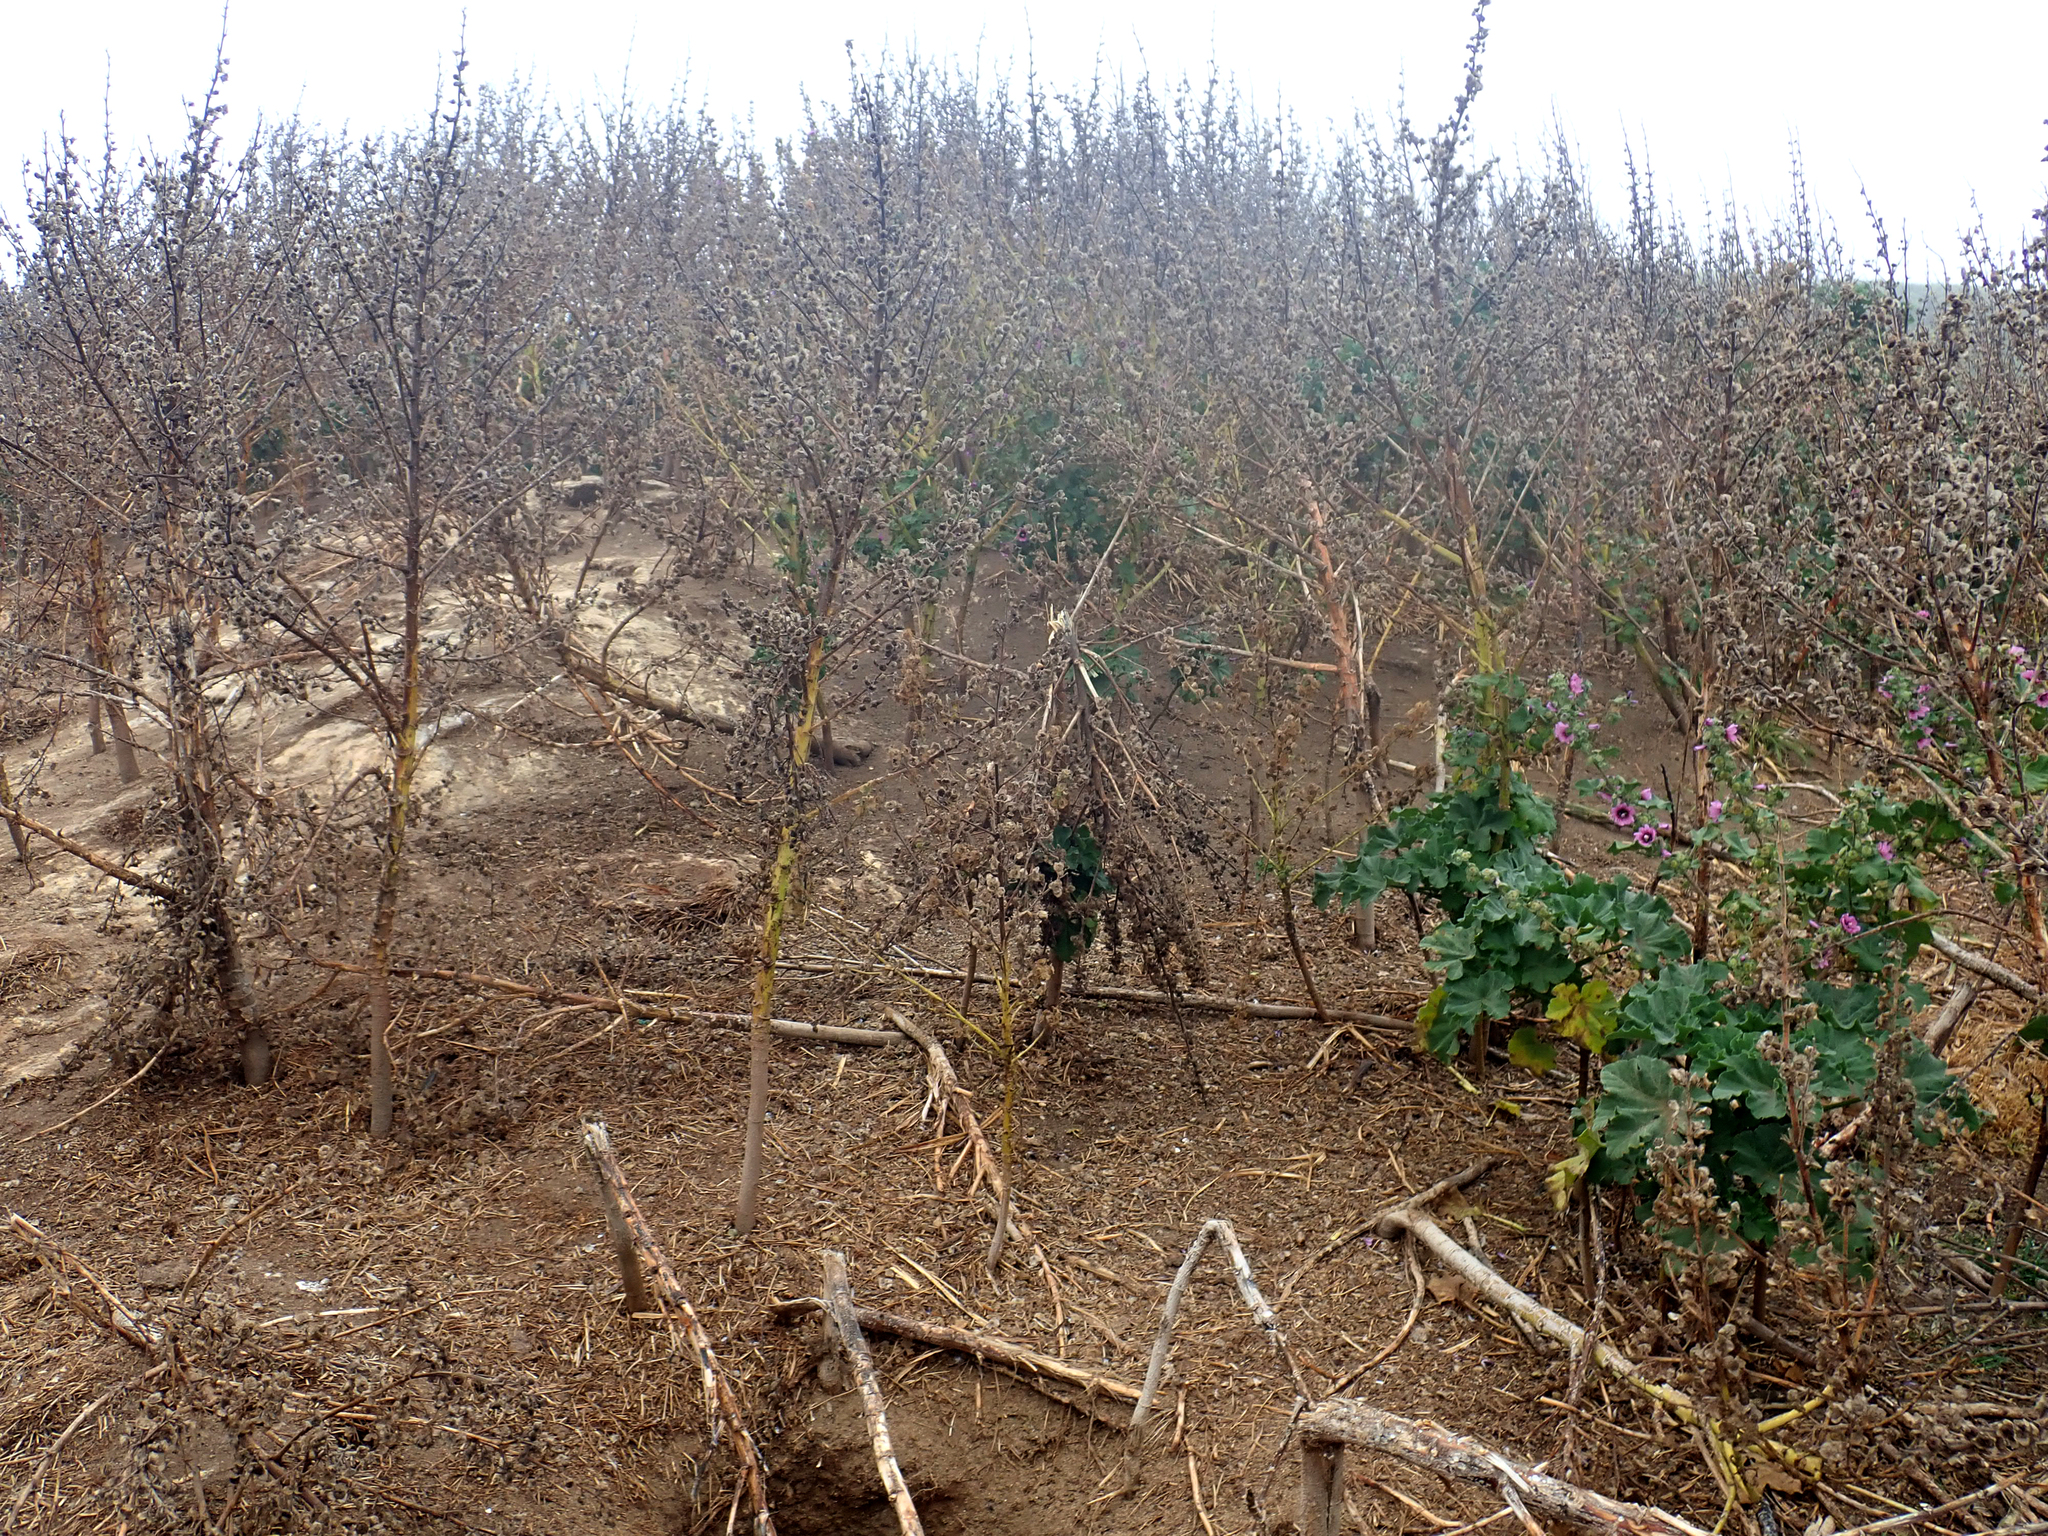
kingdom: Plantae
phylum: Tracheophyta
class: Magnoliopsida
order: Malvales
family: Malvaceae
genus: Malva
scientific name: Malva arborea
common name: Tree mallow
